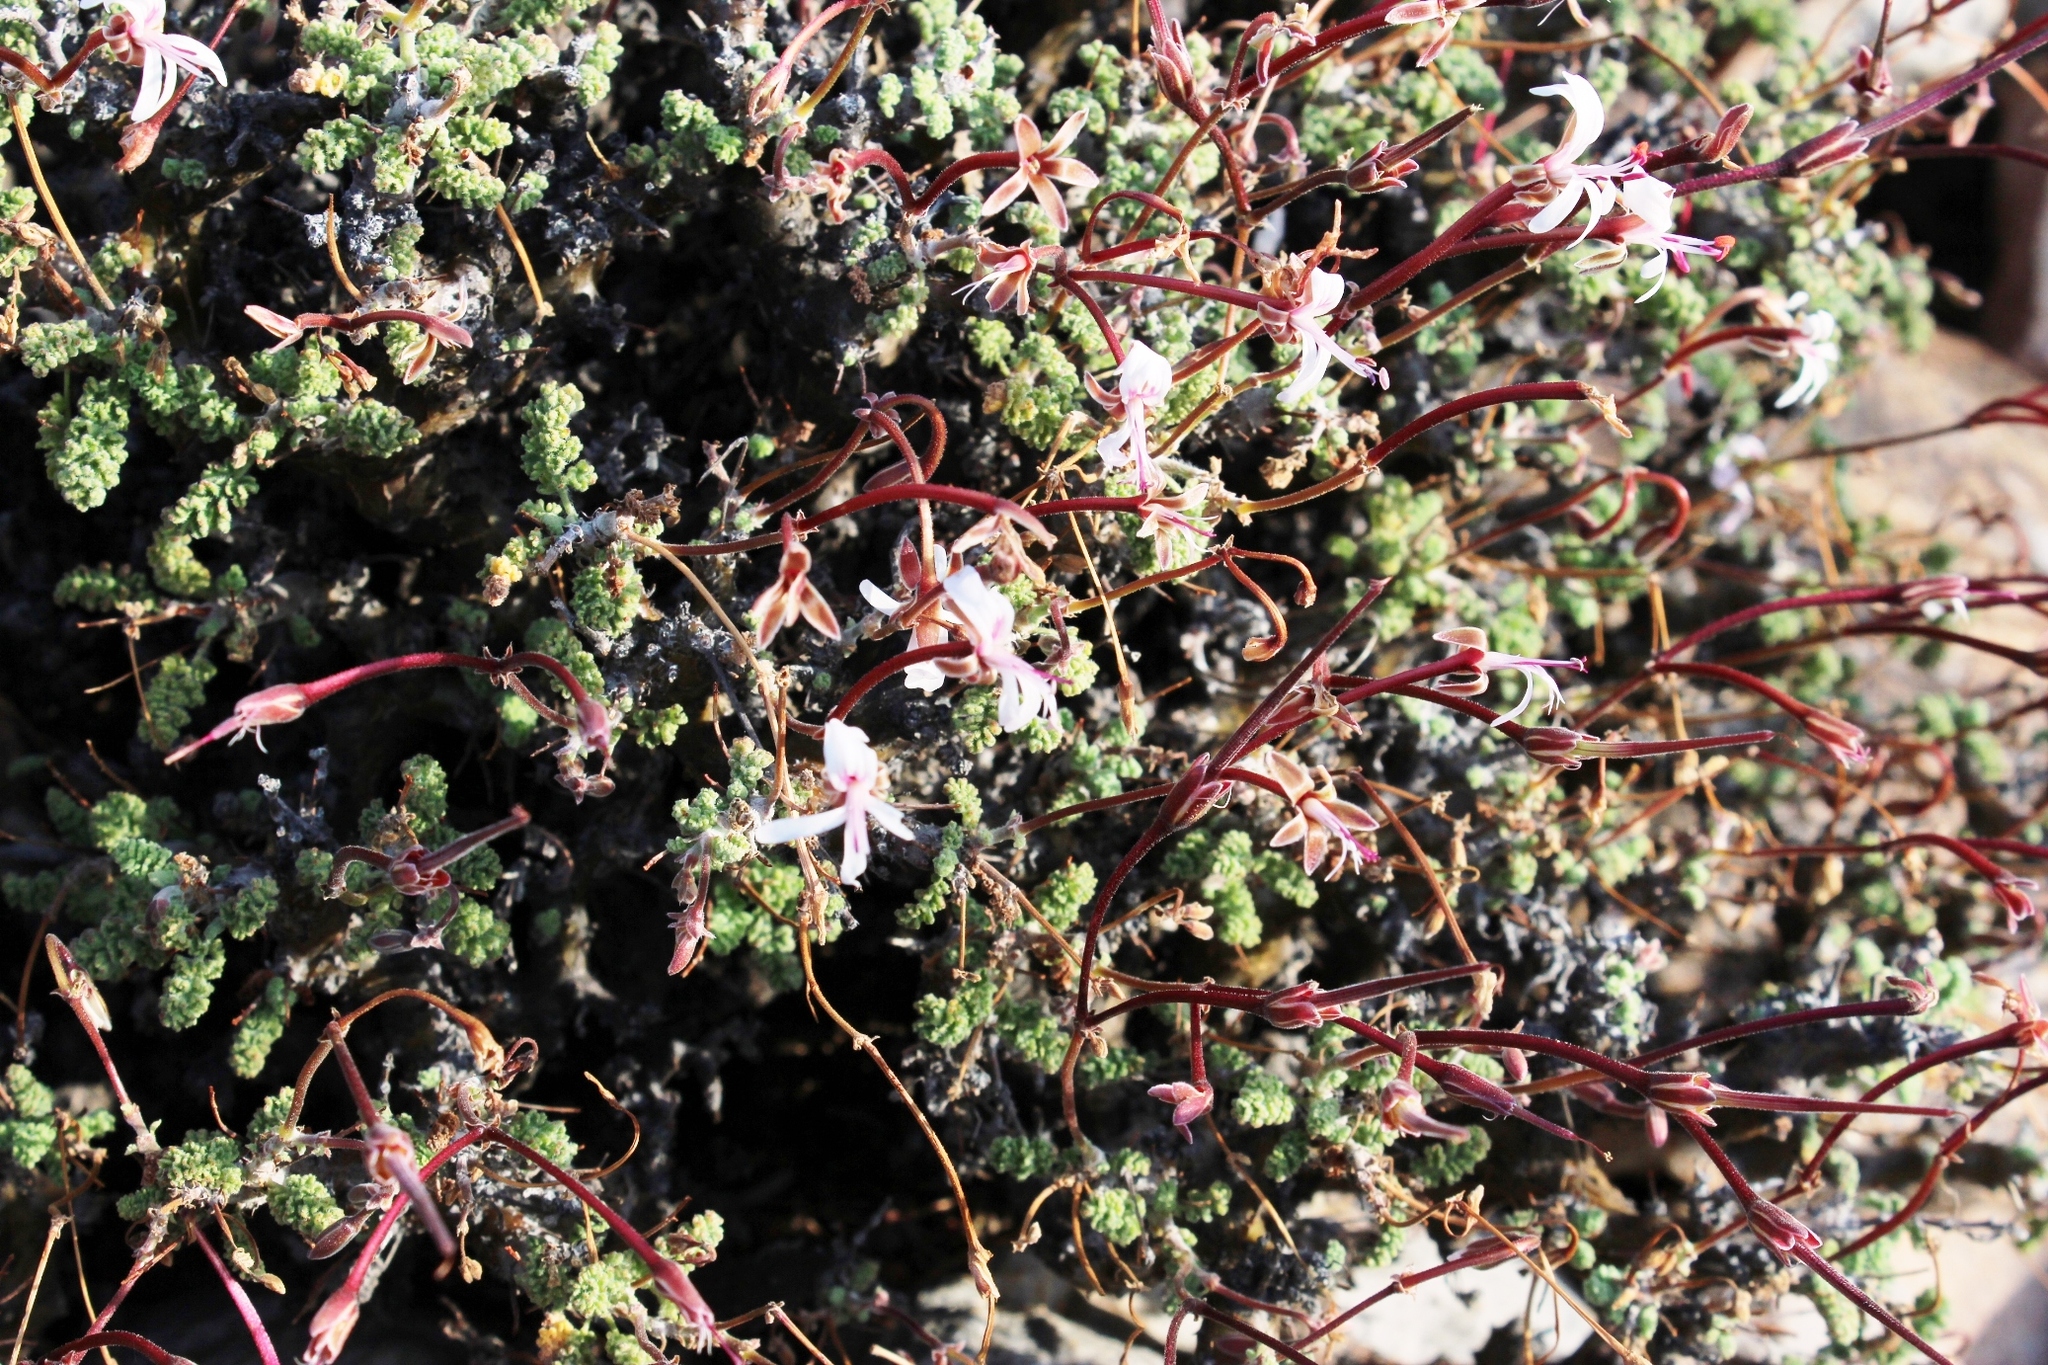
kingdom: Plantae
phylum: Tracheophyta
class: Magnoliopsida
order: Geraniales
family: Geraniaceae
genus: Pelargonium
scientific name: Pelargonium alternans
